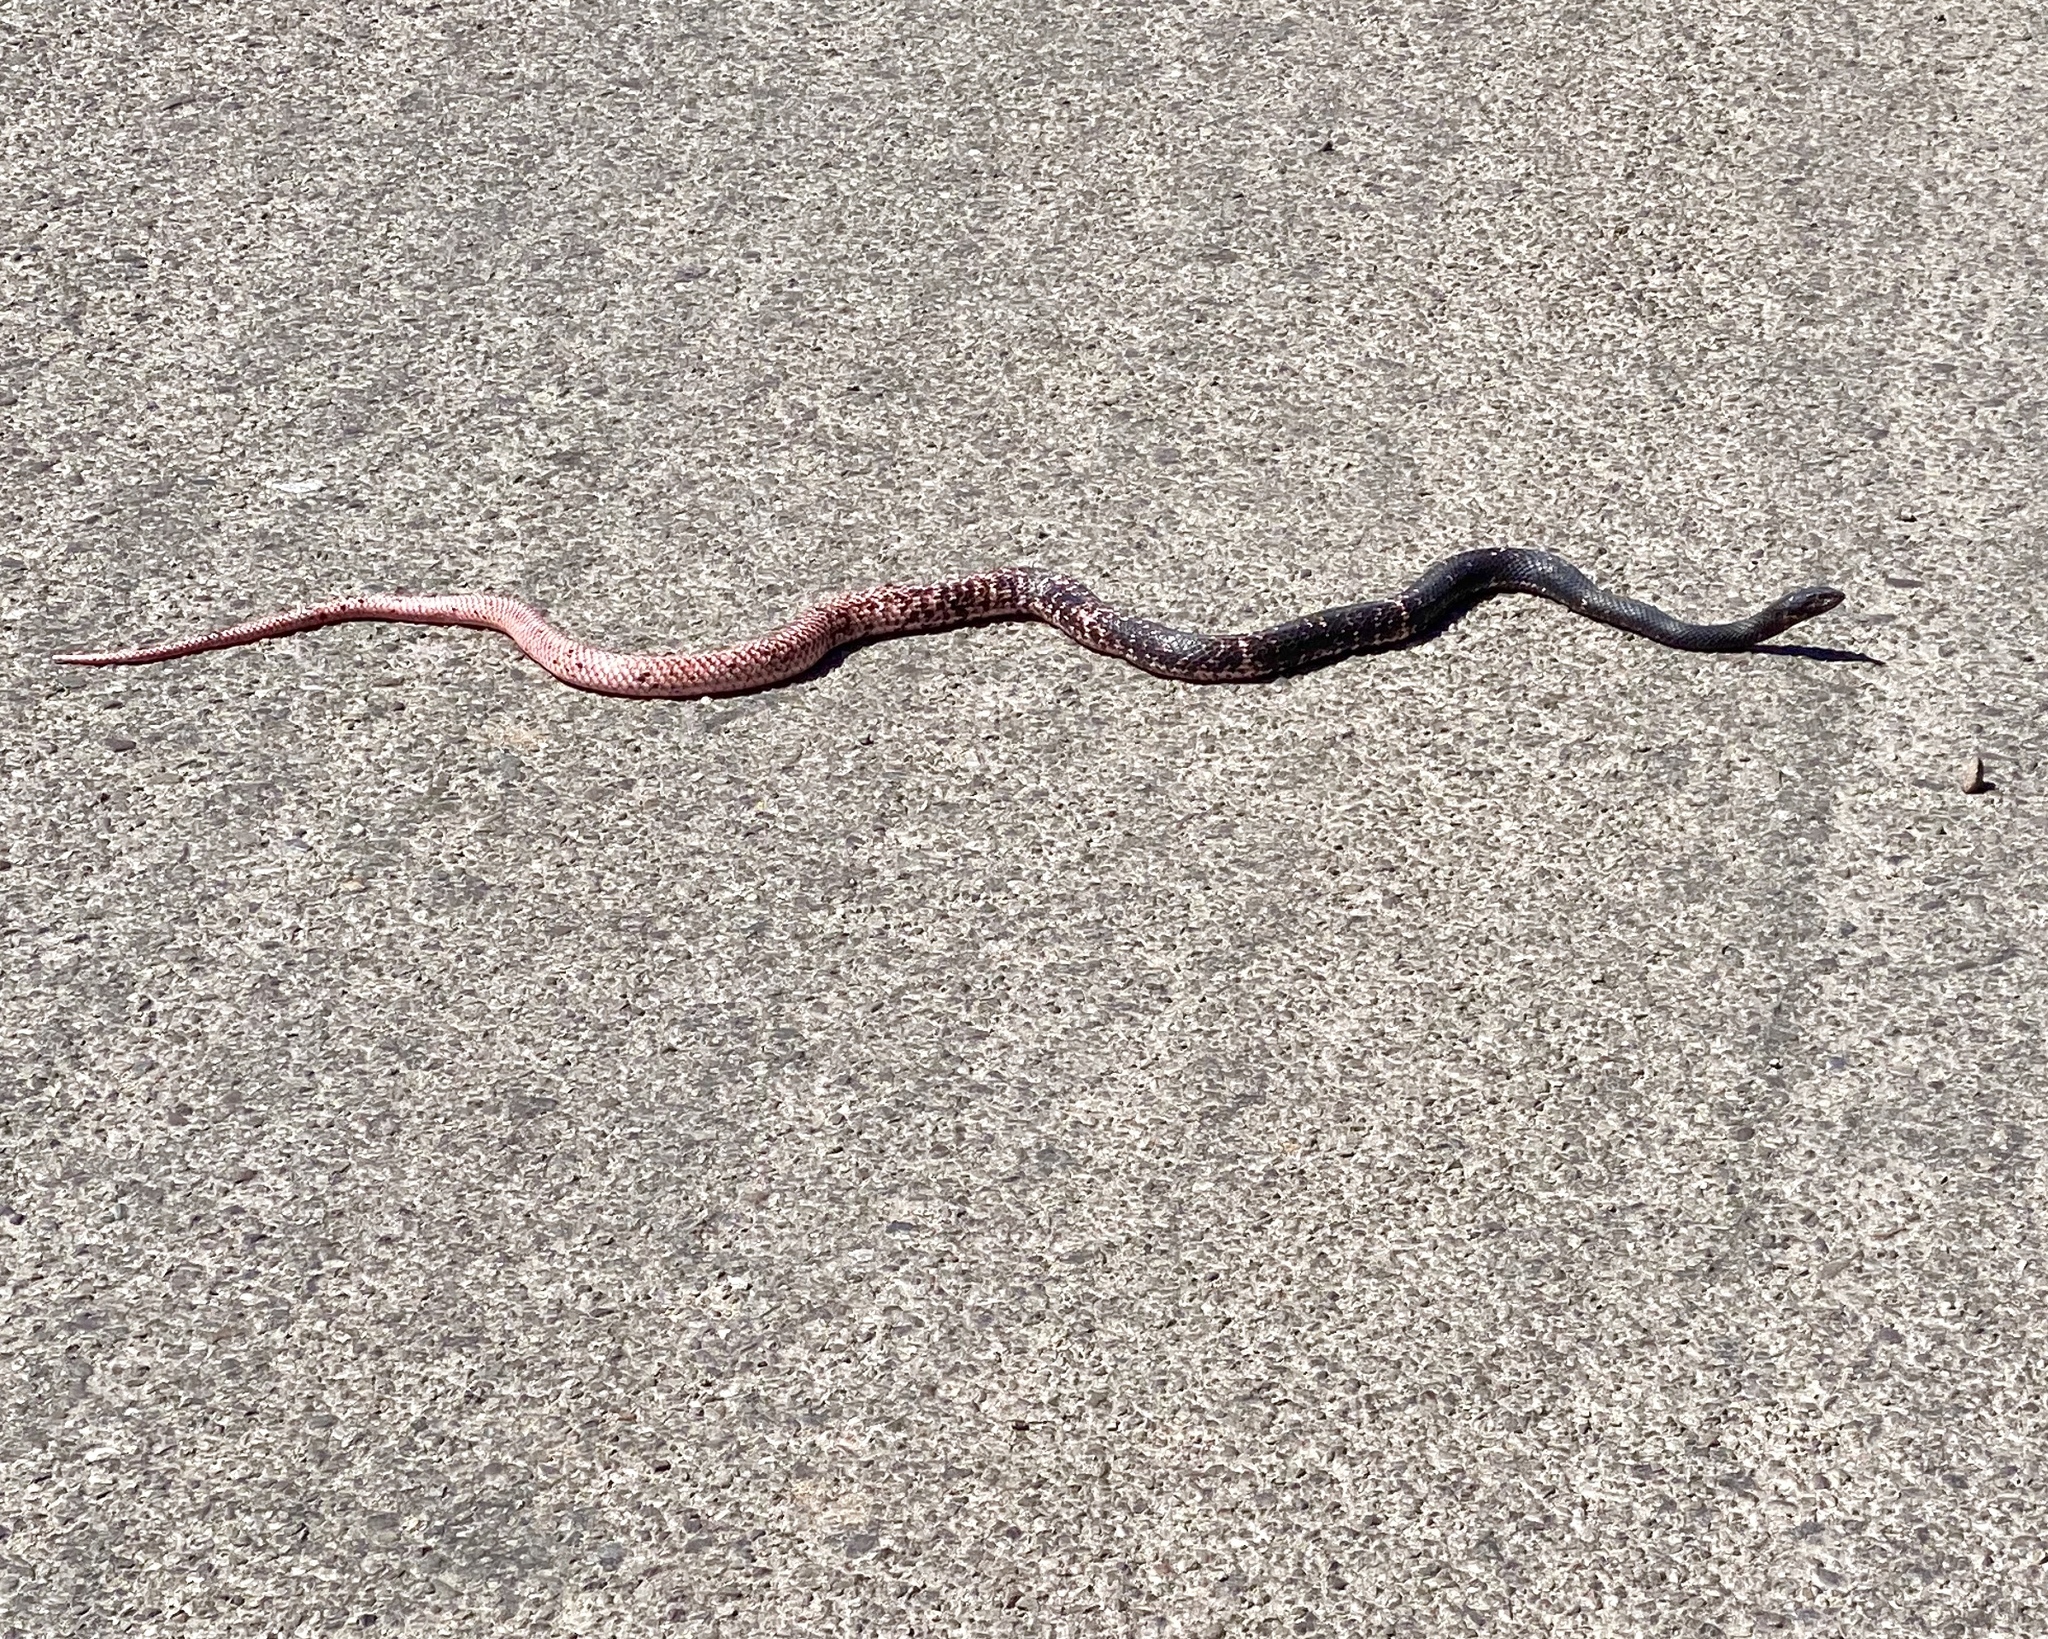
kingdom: Animalia
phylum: Chordata
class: Squamata
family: Colubridae
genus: Masticophis
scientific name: Masticophis flagellum
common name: Coachwhip
